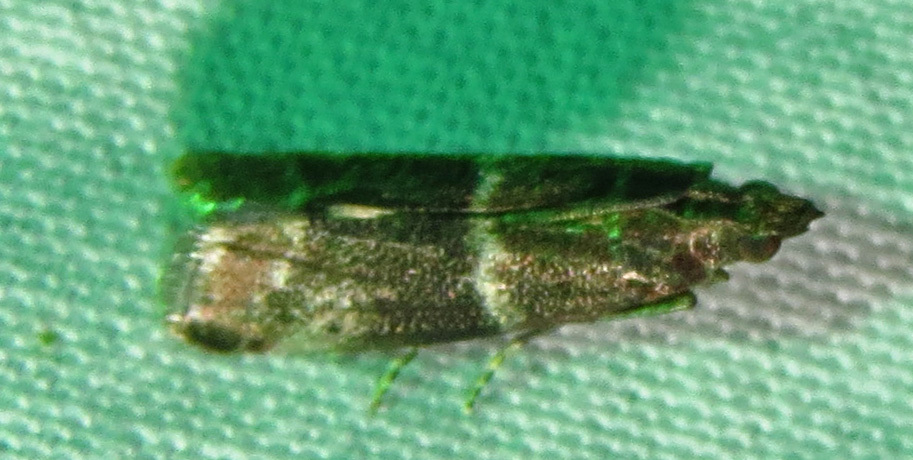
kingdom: Animalia
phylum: Arthropoda
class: Insecta
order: Lepidoptera
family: Pyralidae
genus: Moodna
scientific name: Moodna ostrinella
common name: Darker moodna moth
